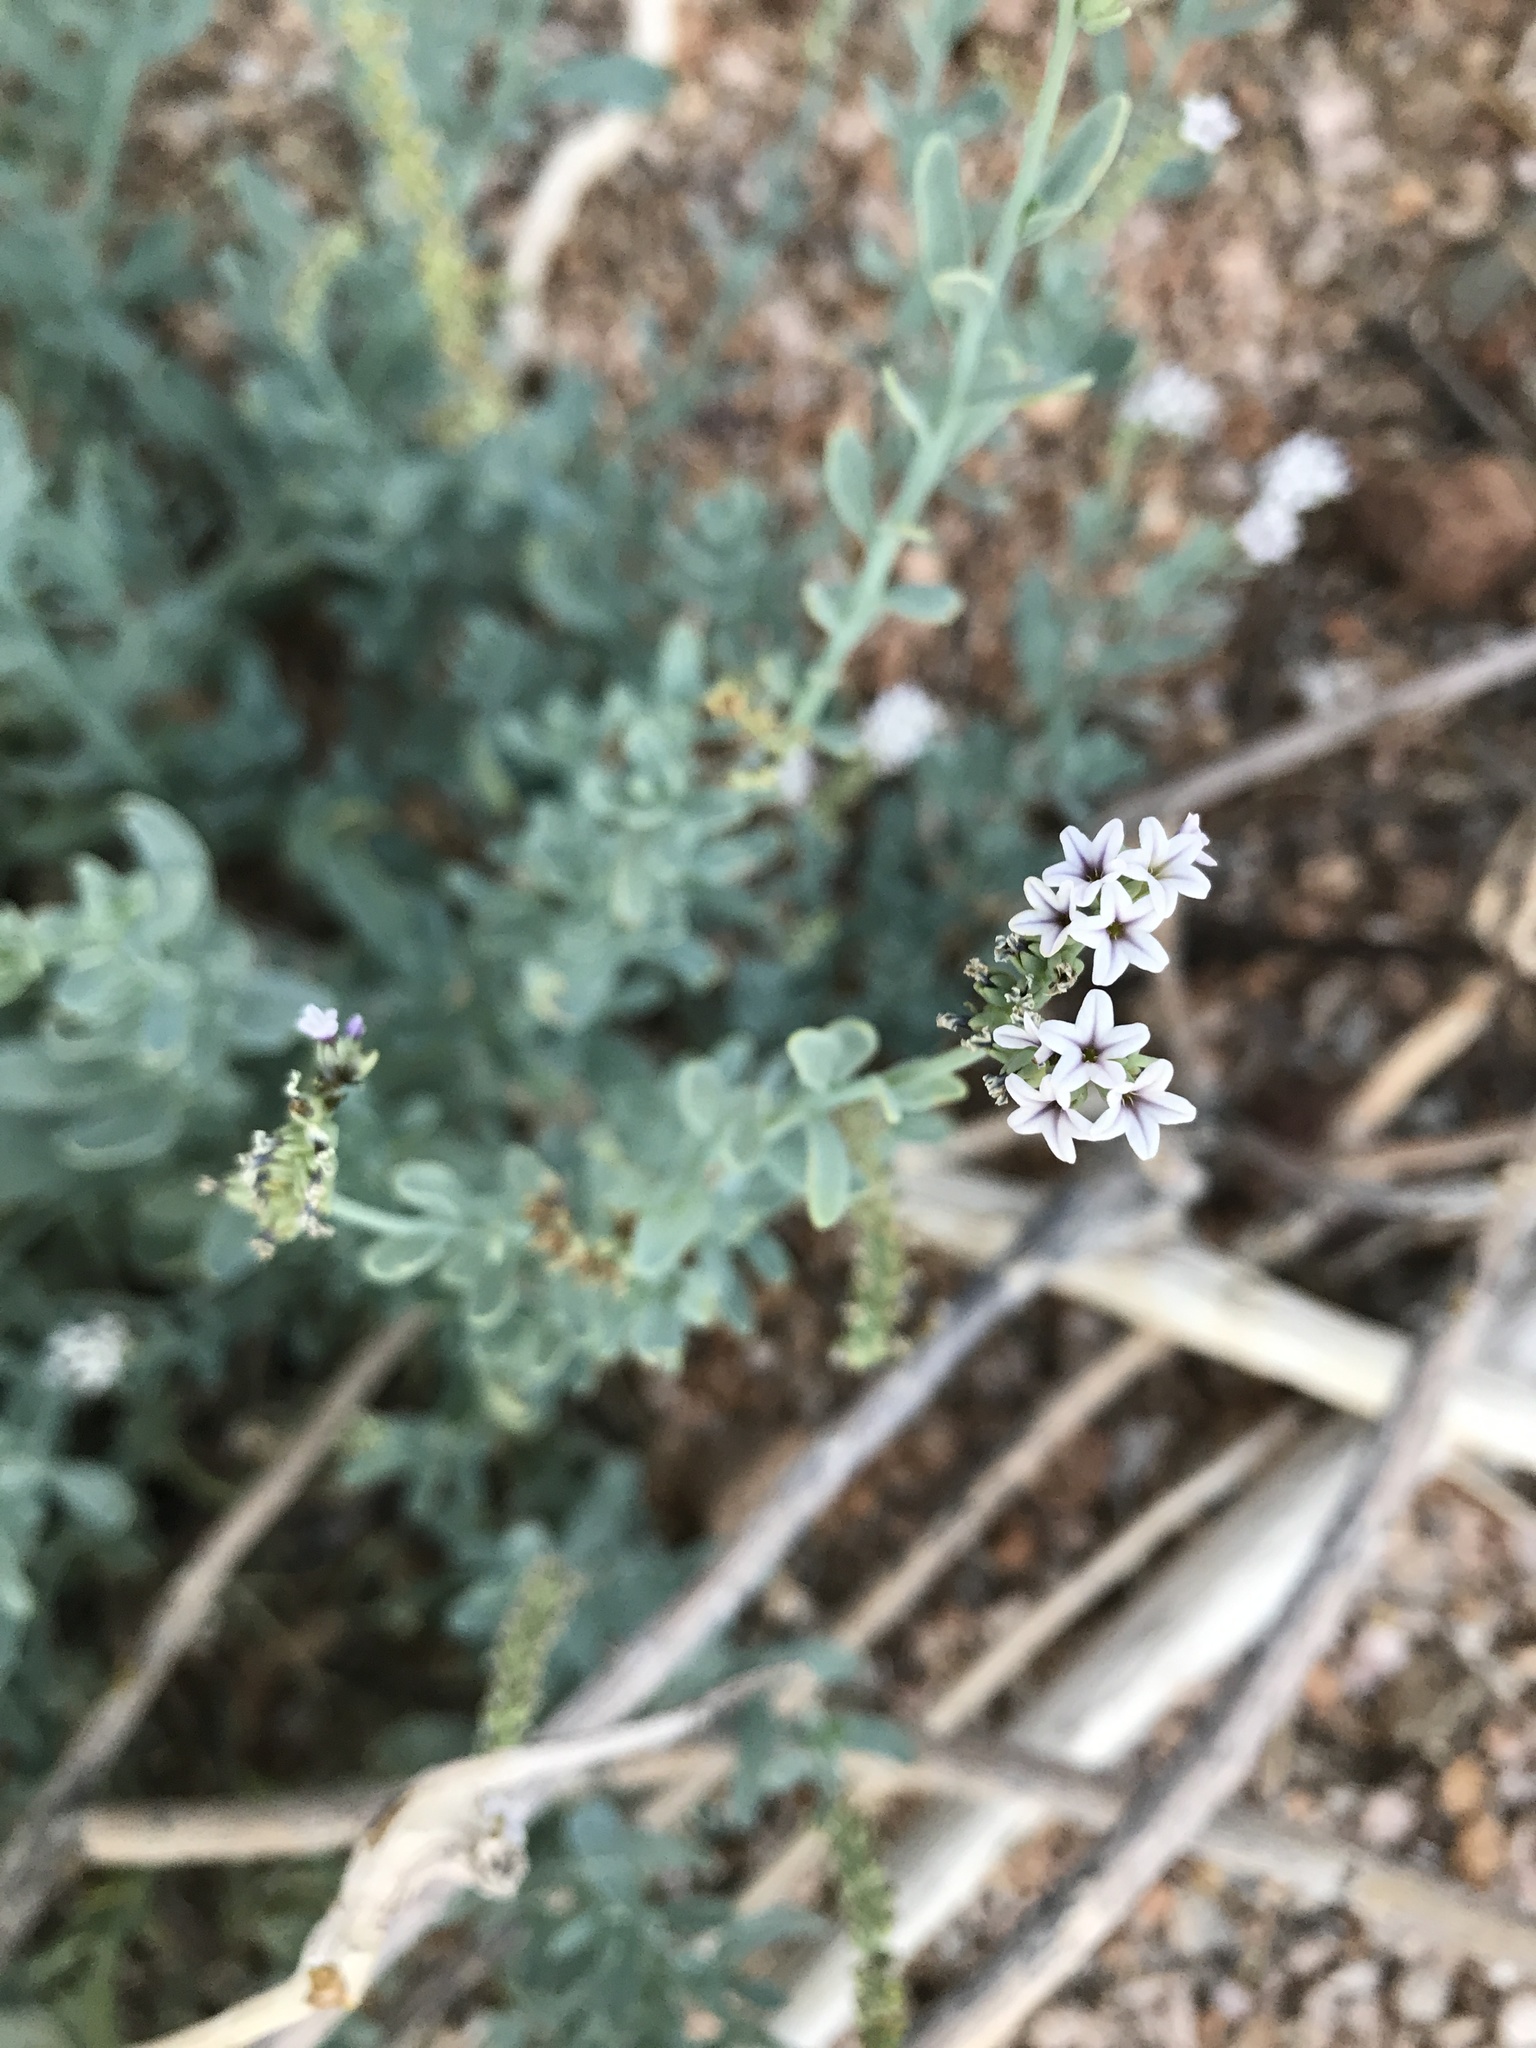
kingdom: Plantae
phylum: Tracheophyta
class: Magnoliopsida
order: Boraginales
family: Heliotropiaceae
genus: Heliotropium
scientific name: Heliotropium curassavicum
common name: Seaside heliotrope
